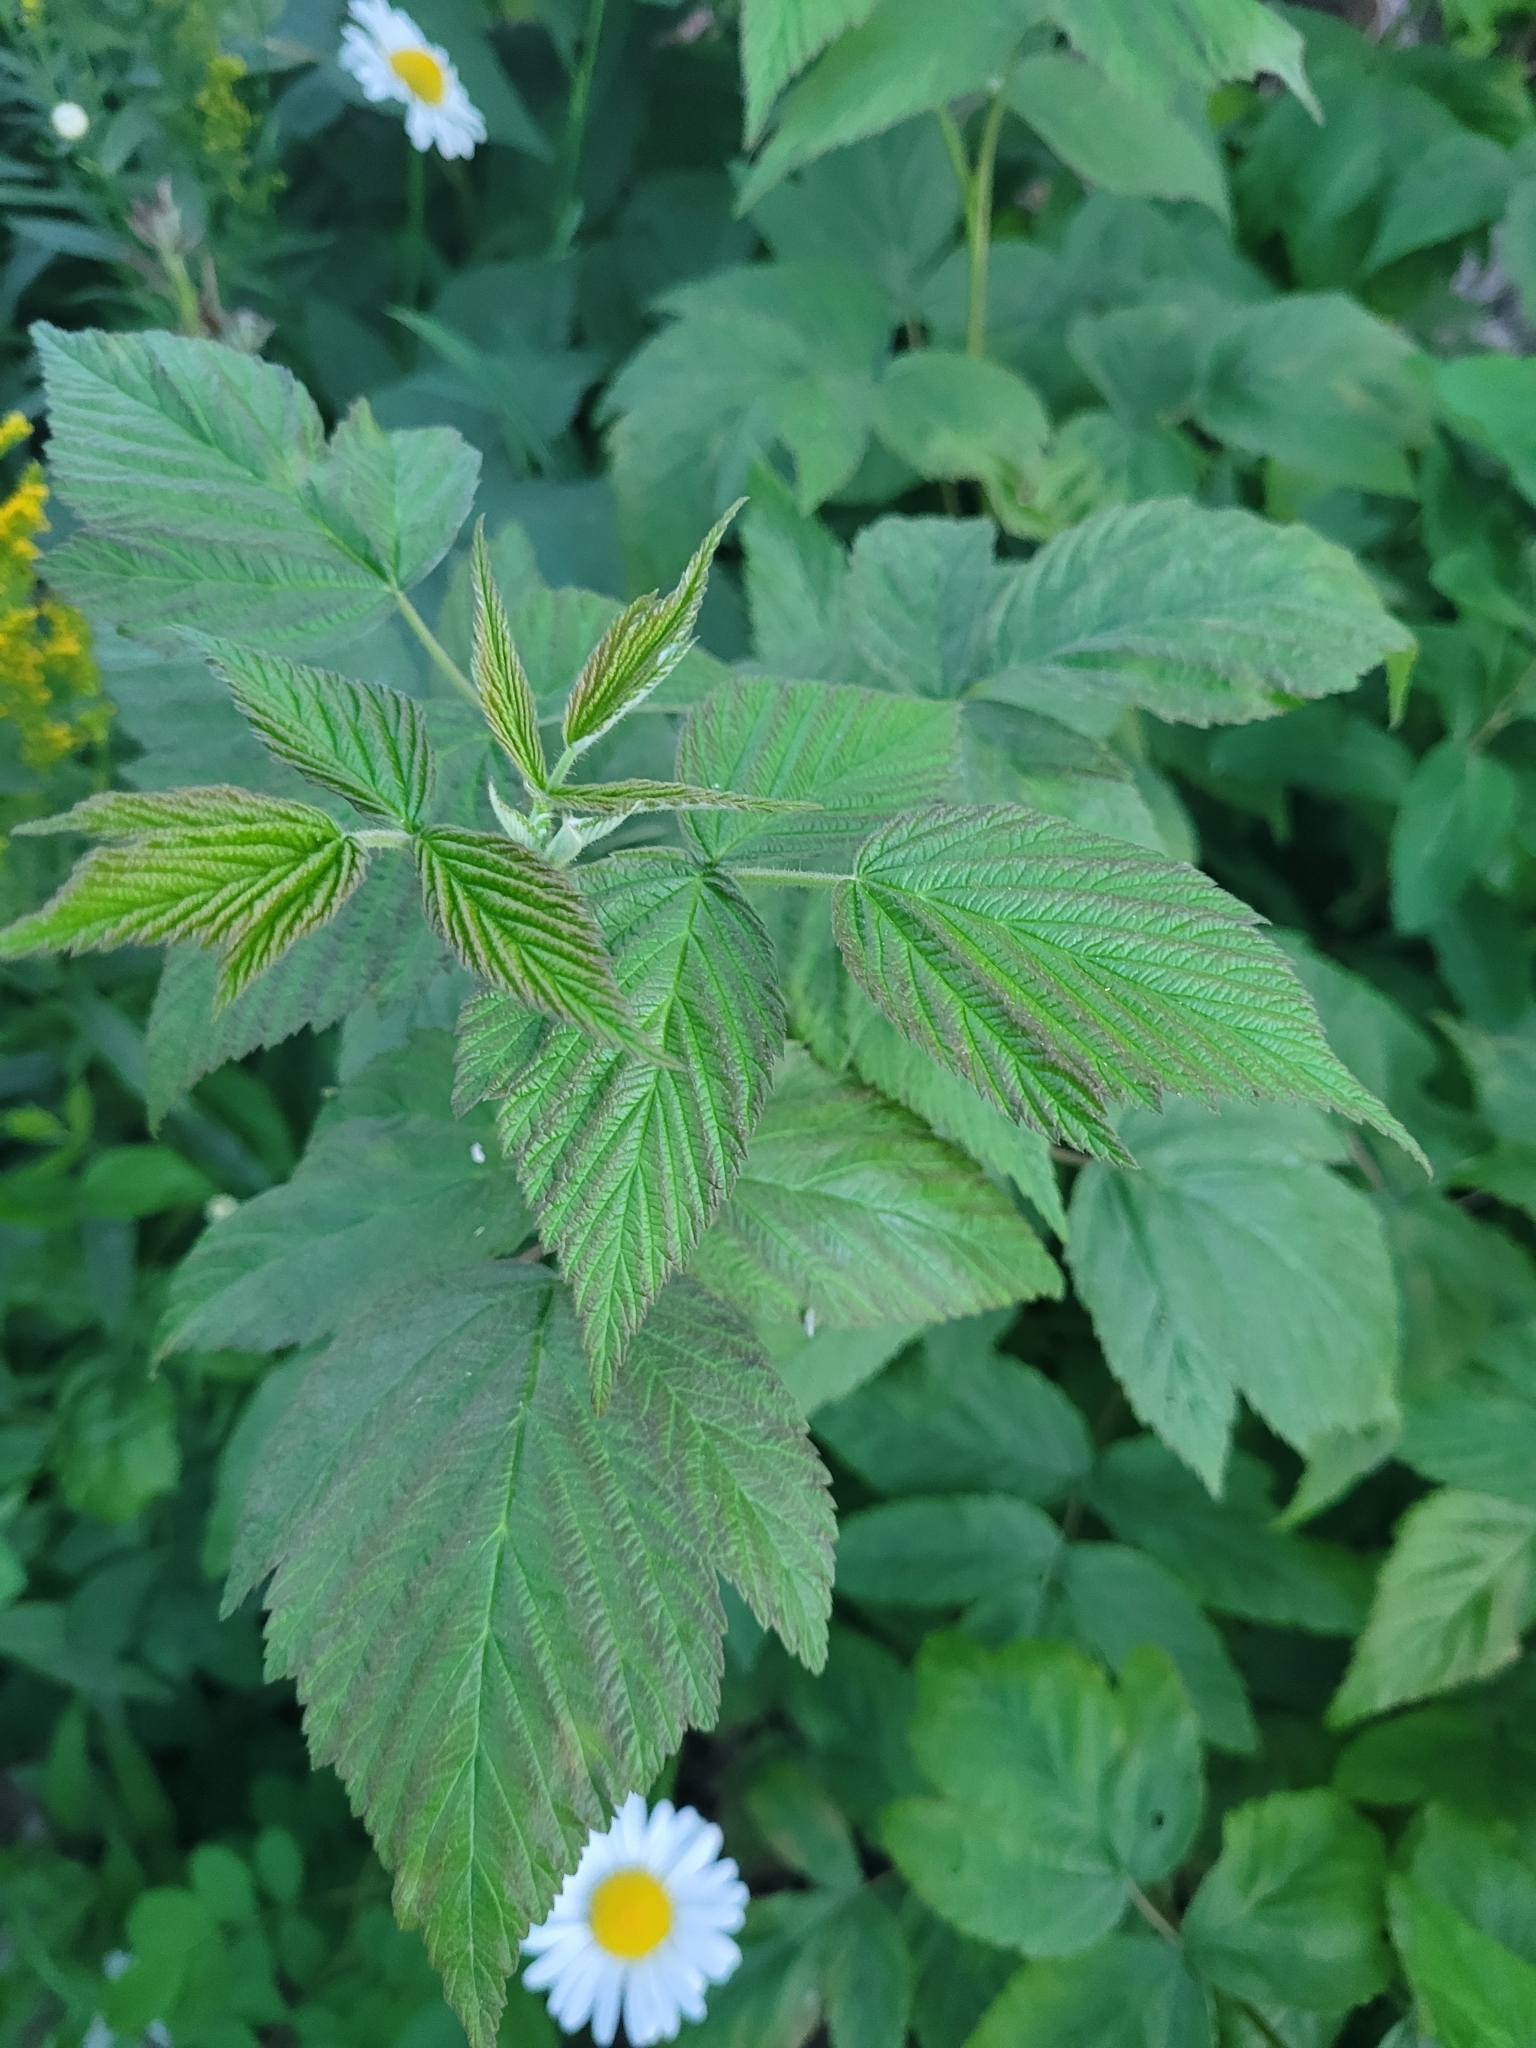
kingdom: Plantae
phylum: Tracheophyta
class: Magnoliopsida
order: Rosales
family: Rosaceae
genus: Rubus
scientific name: Rubus idaeus
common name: Raspberry
